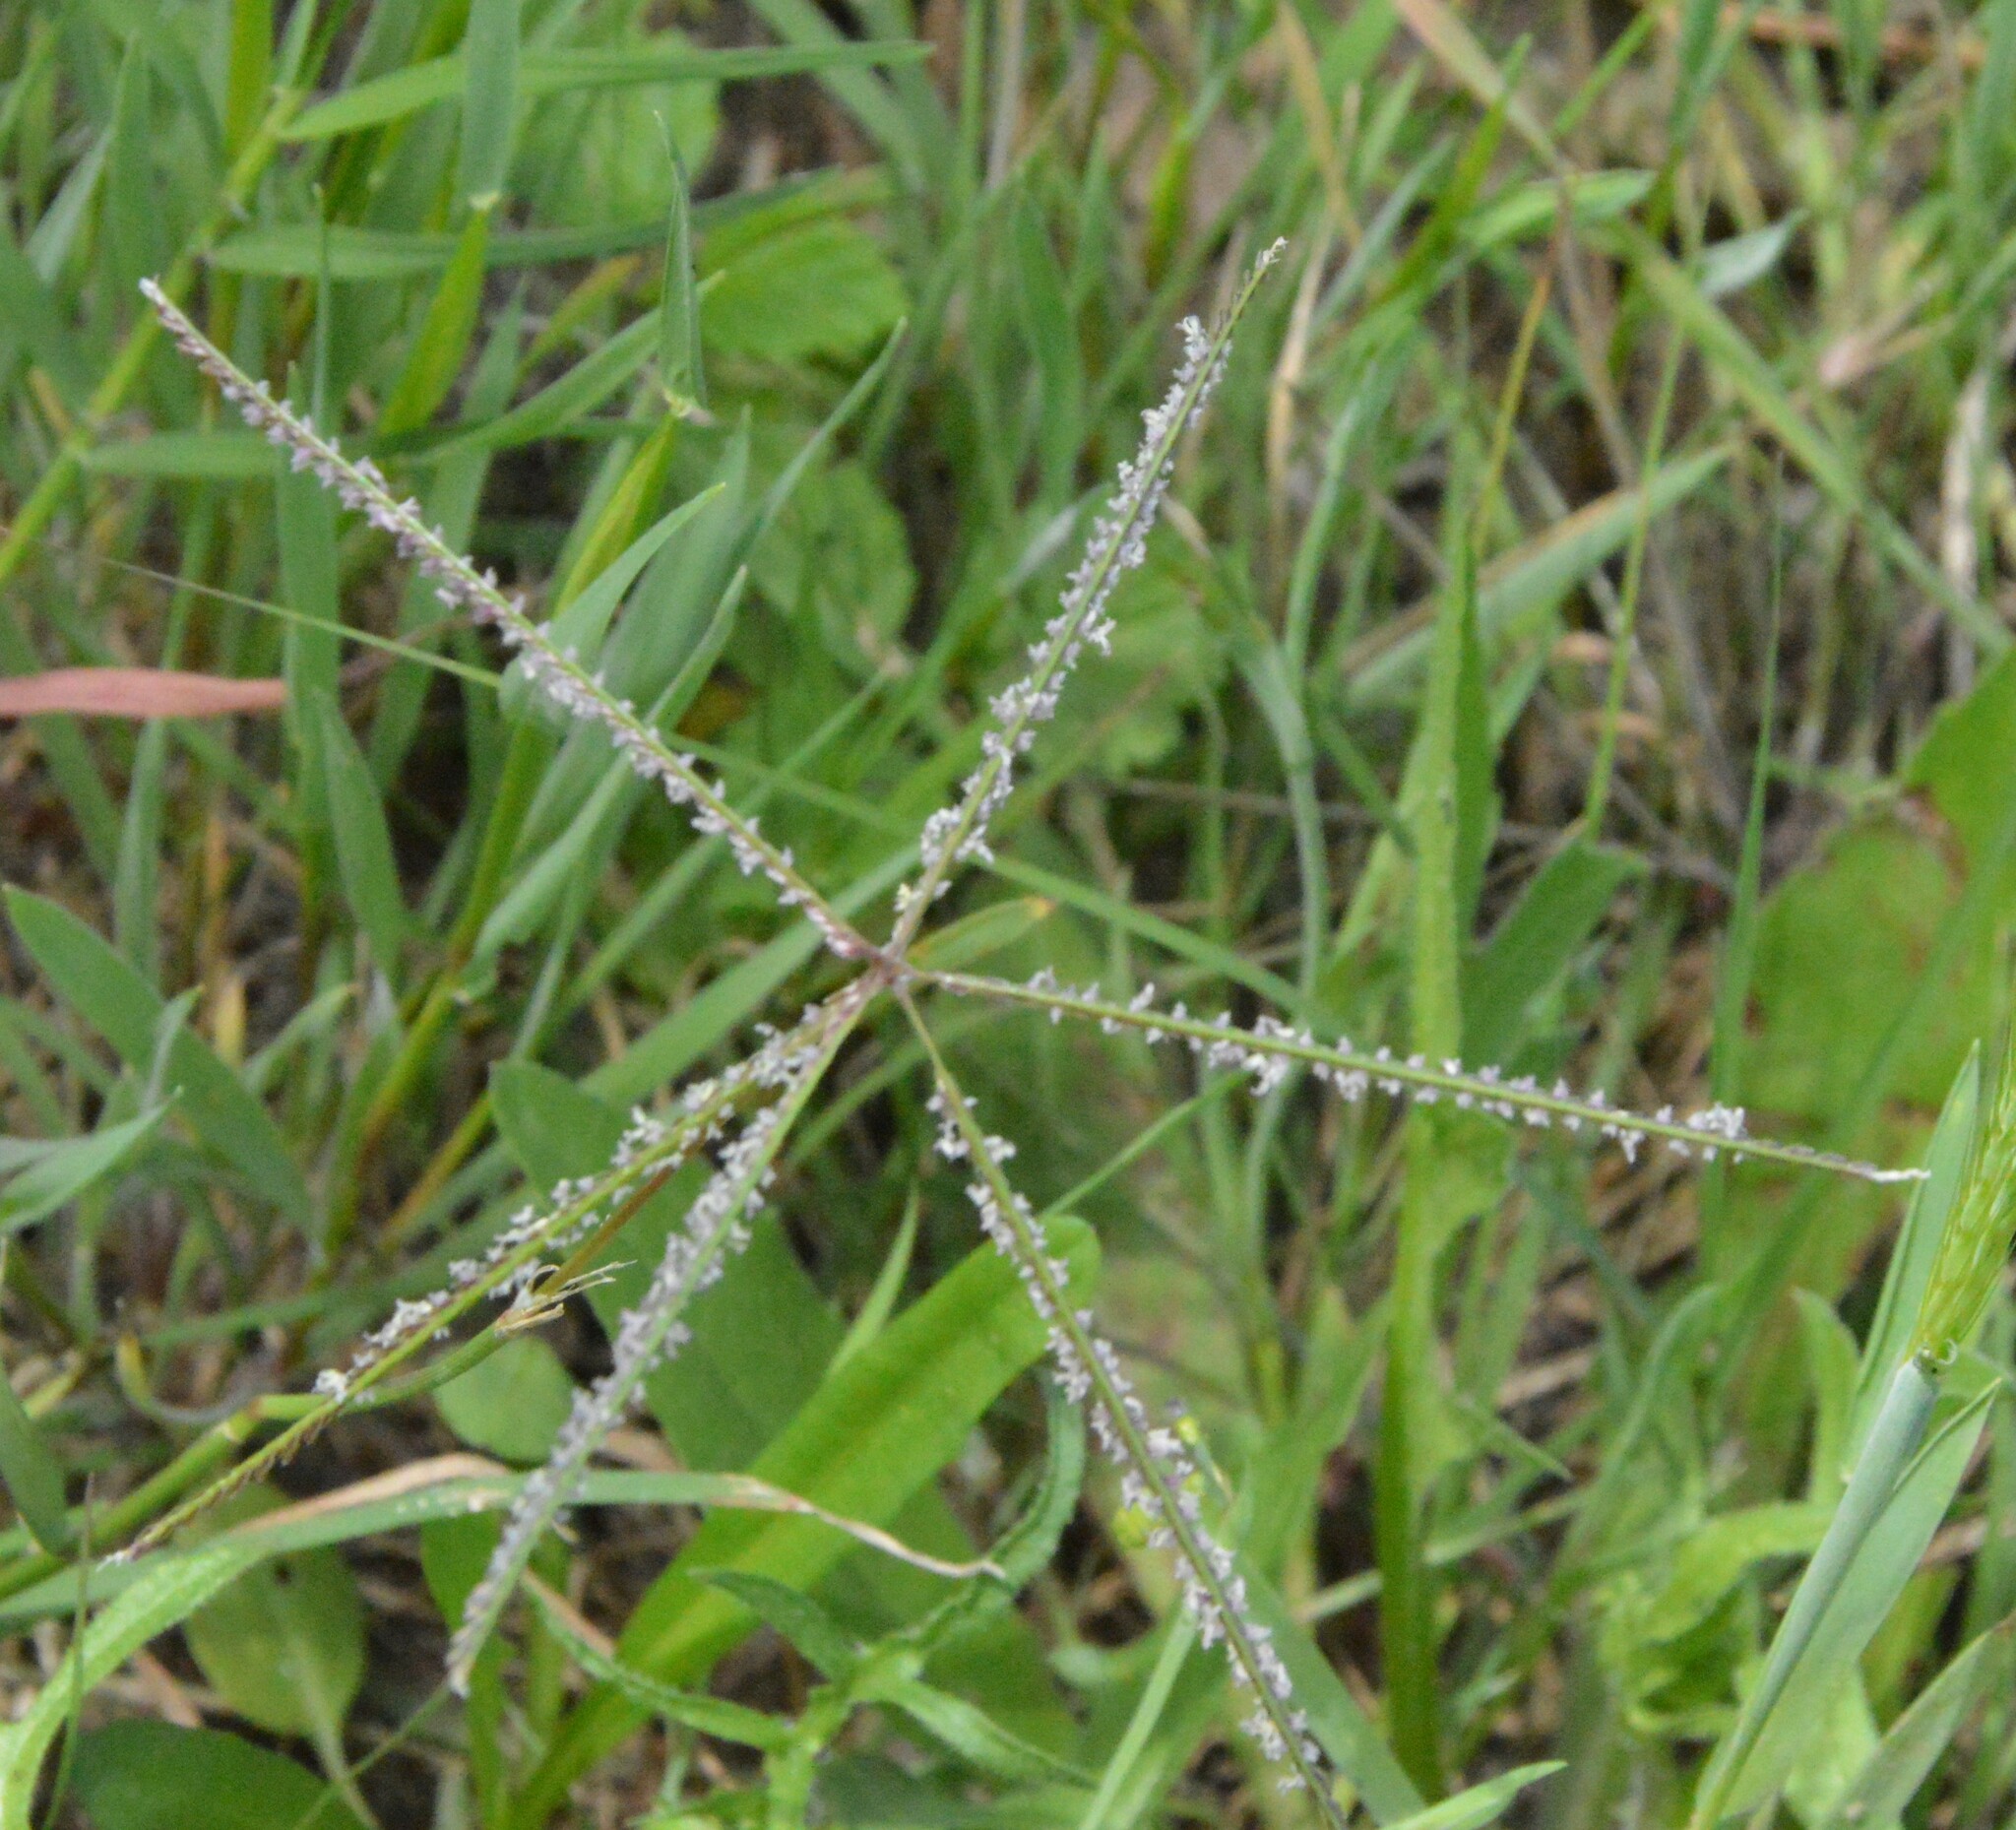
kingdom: Plantae
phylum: Tracheophyta
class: Liliopsida
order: Poales
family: Poaceae
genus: Cynodon
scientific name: Cynodon dactylon
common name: Bermuda grass
